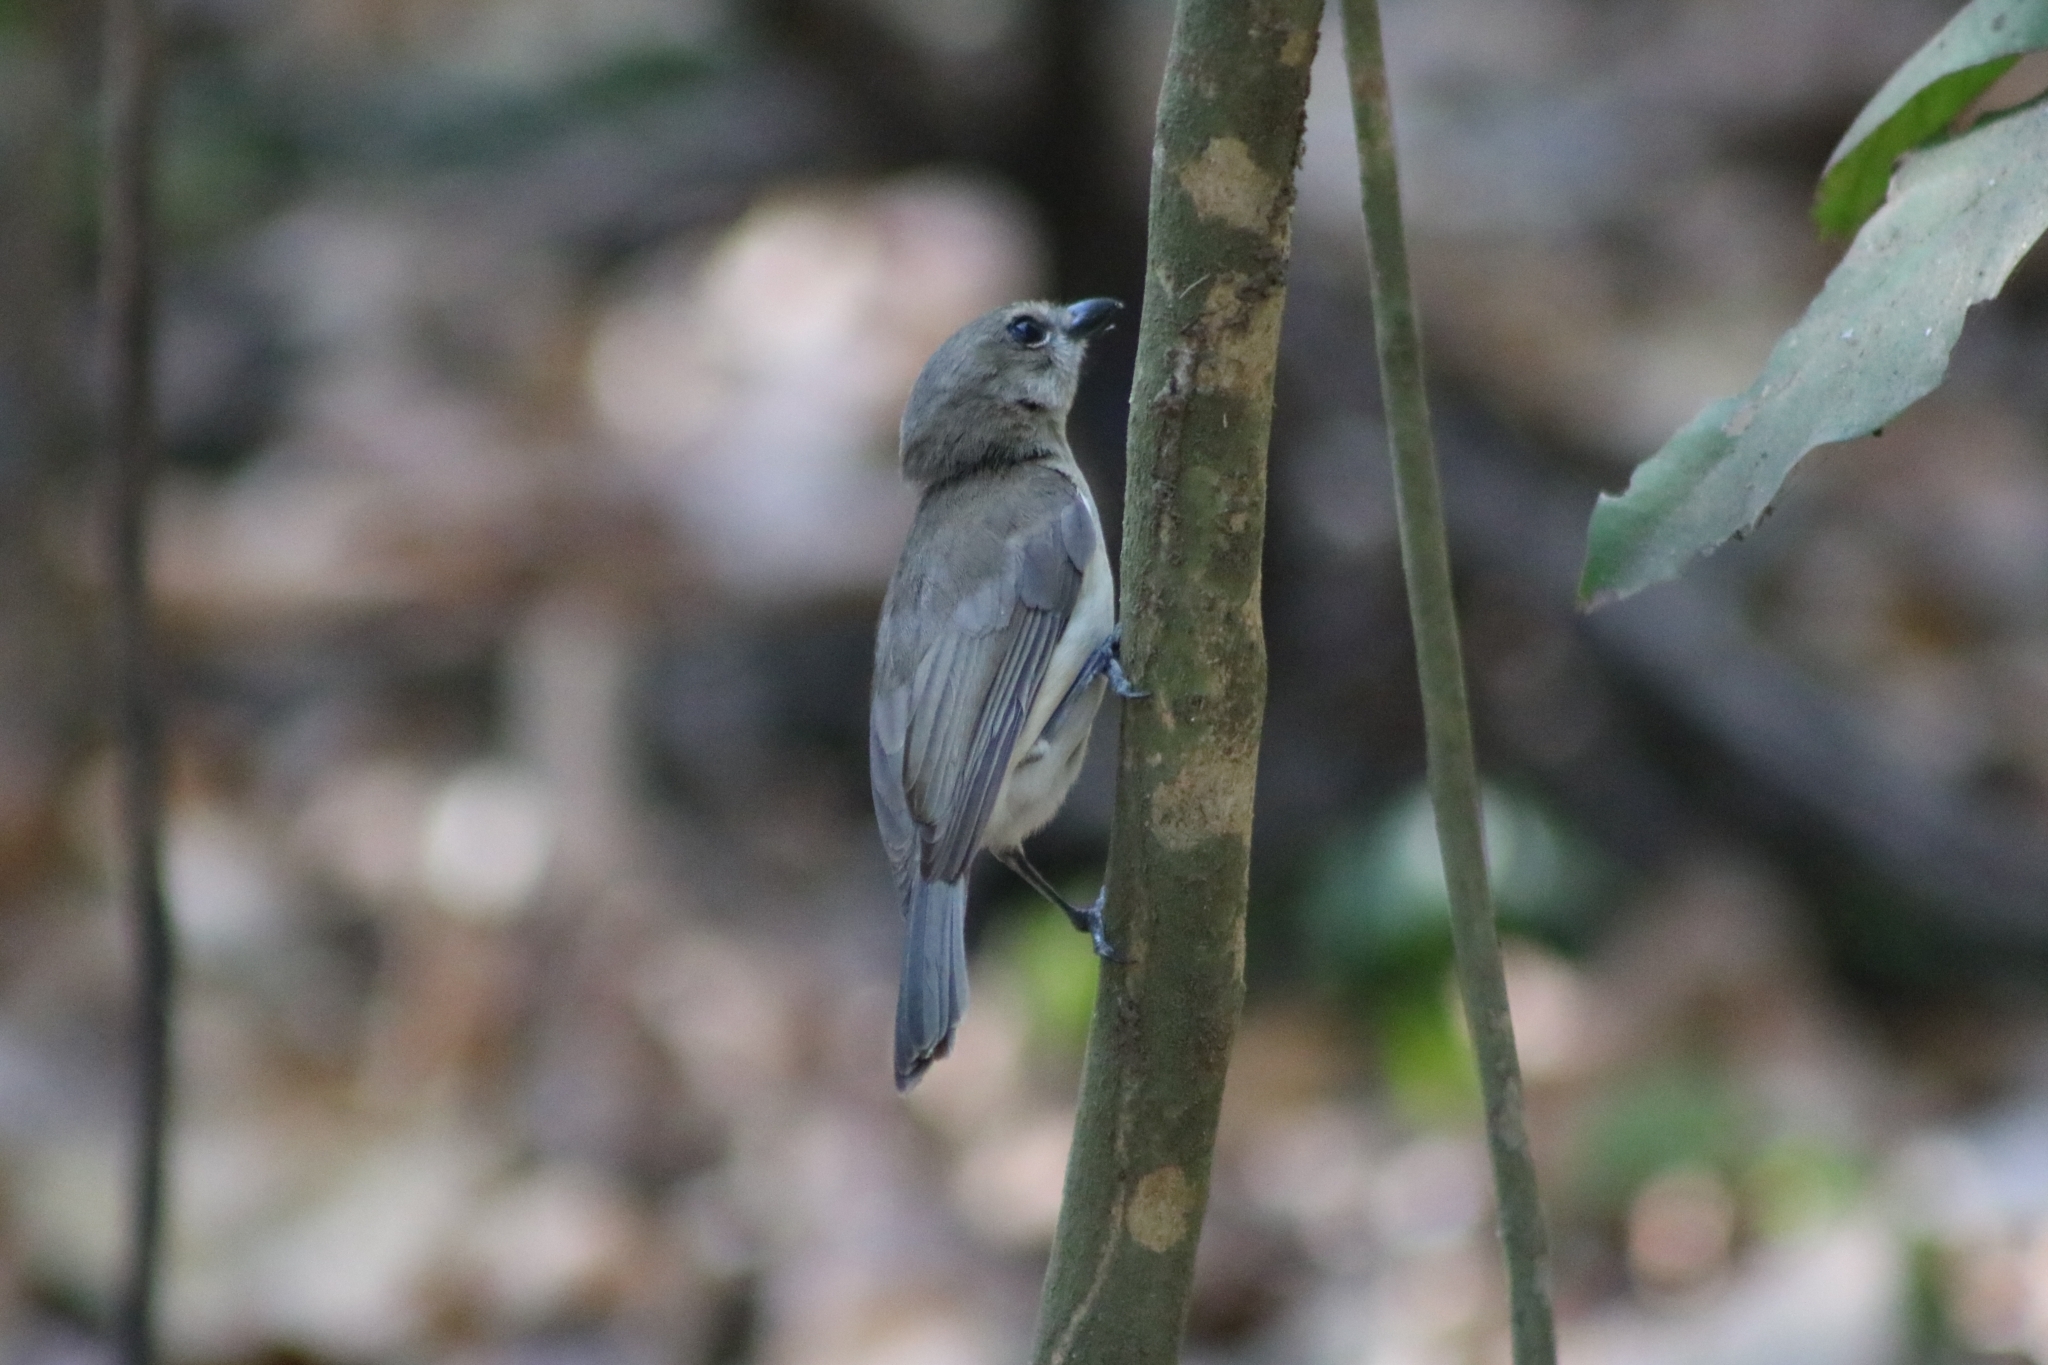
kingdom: Animalia
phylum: Chordata
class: Aves
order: Passeriformes
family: Pachycephalidae
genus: Pachycephala
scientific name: Pachycephala simplex
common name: Grey whistler
